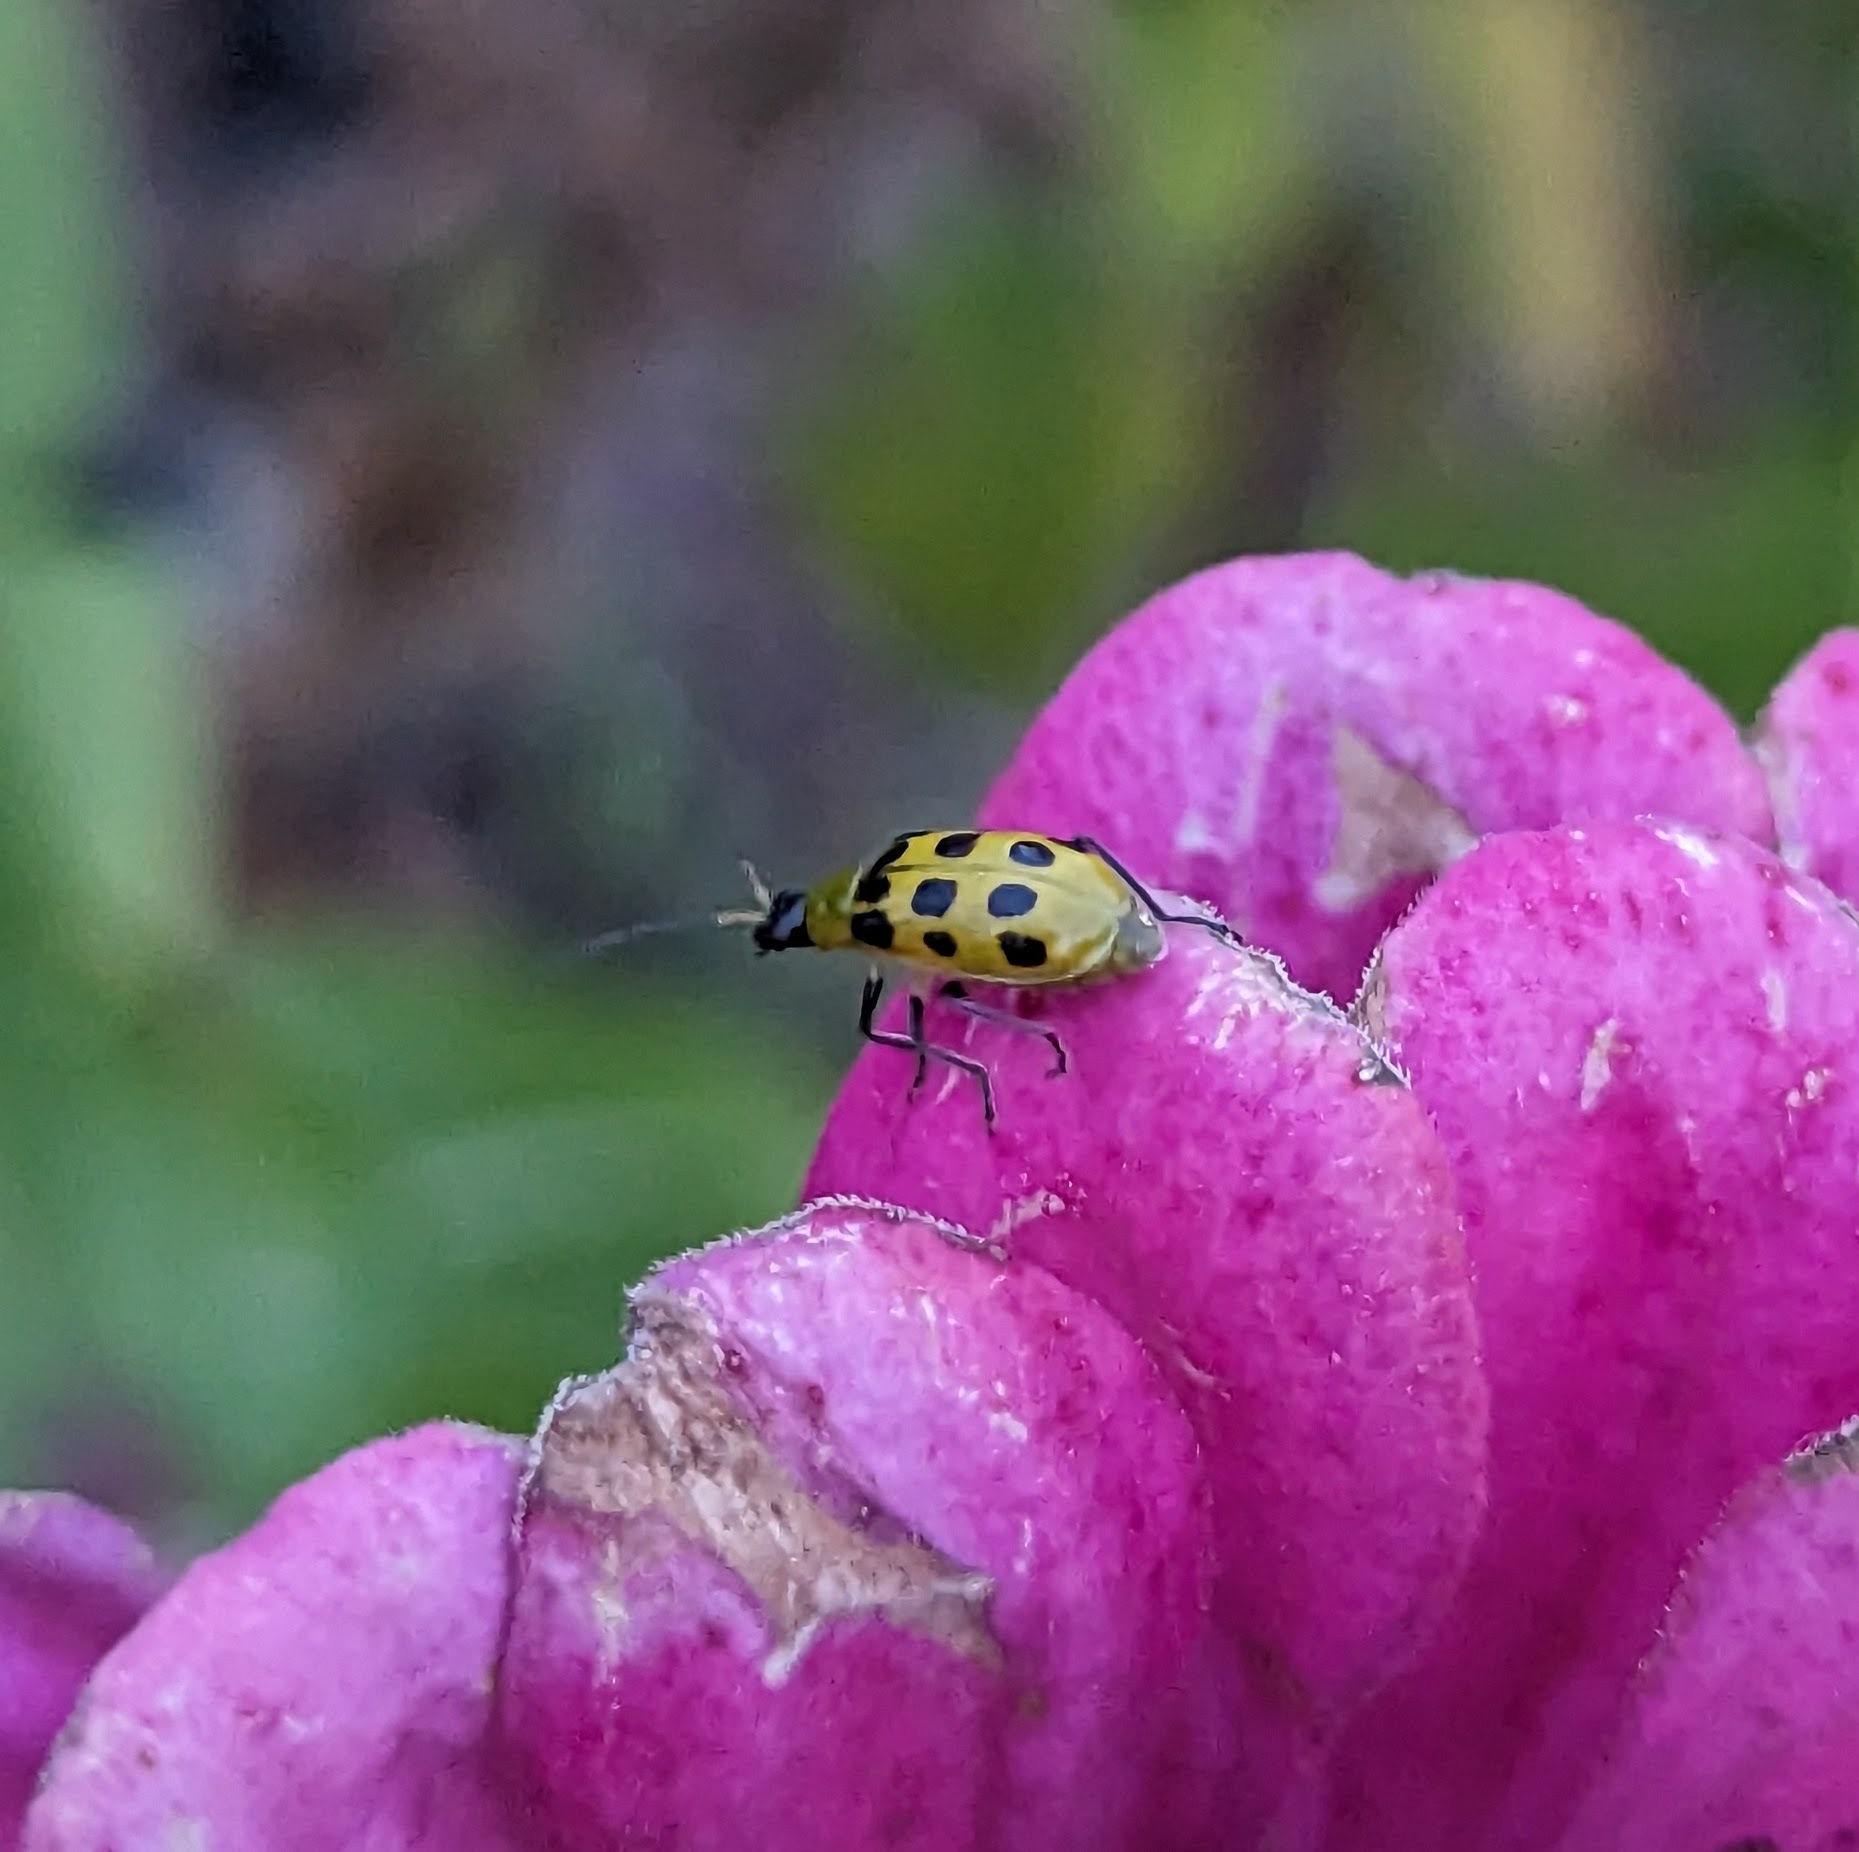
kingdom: Animalia
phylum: Arthropoda
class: Insecta
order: Coleoptera
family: Chrysomelidae
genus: Diabrotica
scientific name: Diabrotica undecimpunctata
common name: Spotted cucumber beetle
